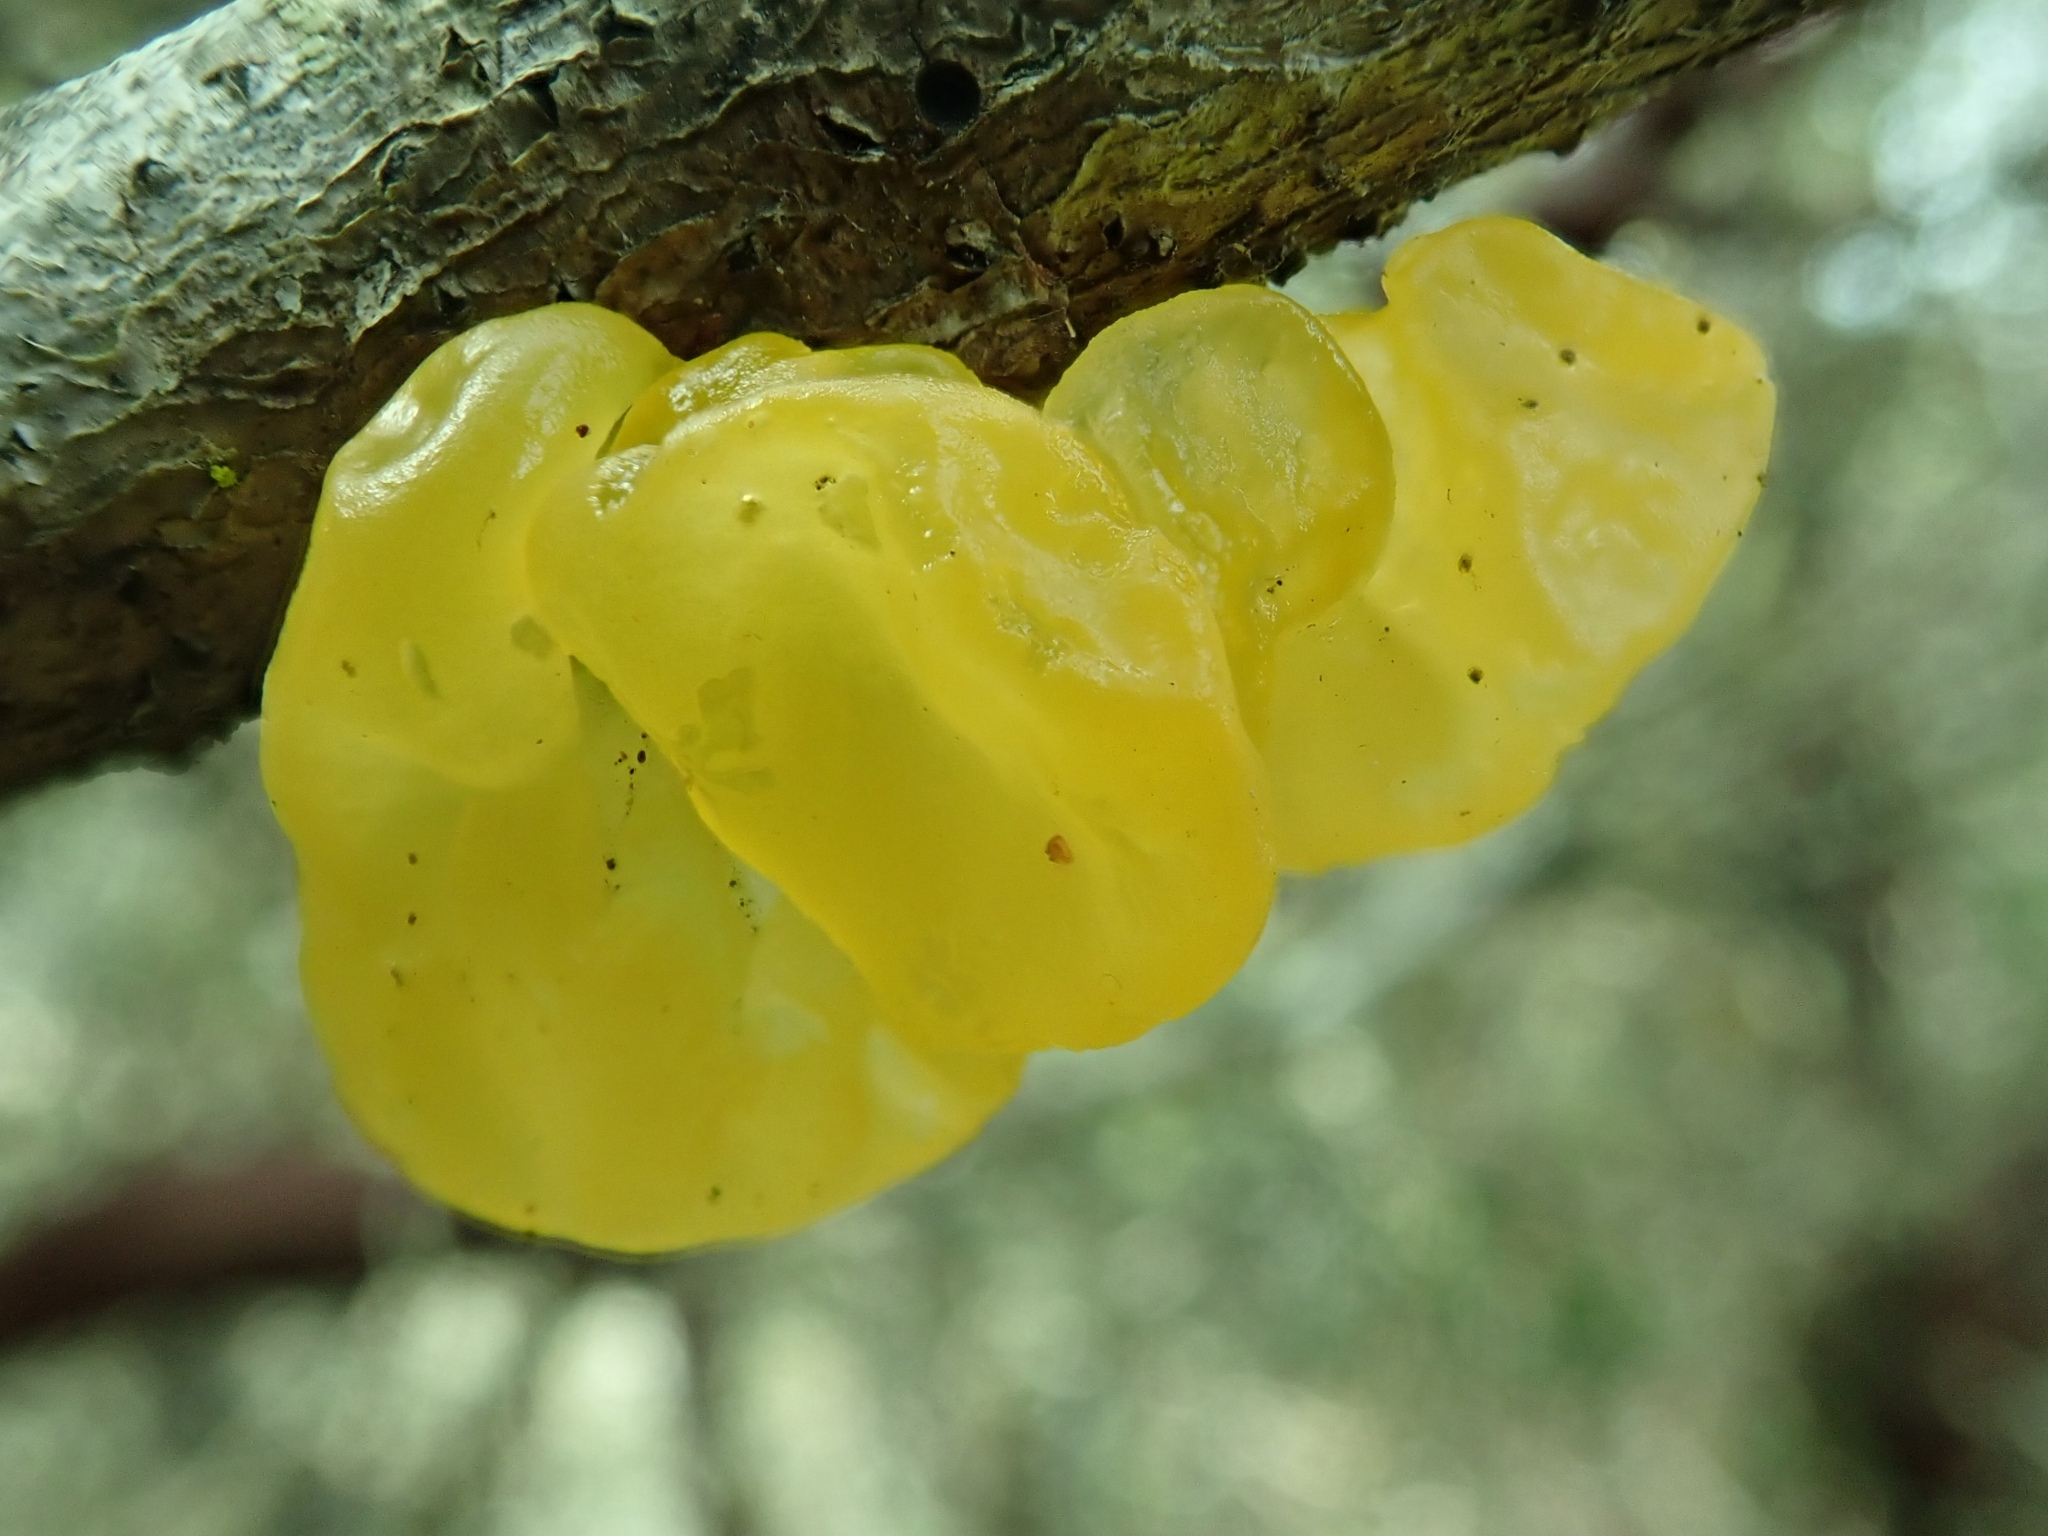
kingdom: Fungi
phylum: Basidiomycota
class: Tremellomycetes
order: Tremellales
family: Tremellaceae
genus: Tremella
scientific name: Tremella mesenterica
